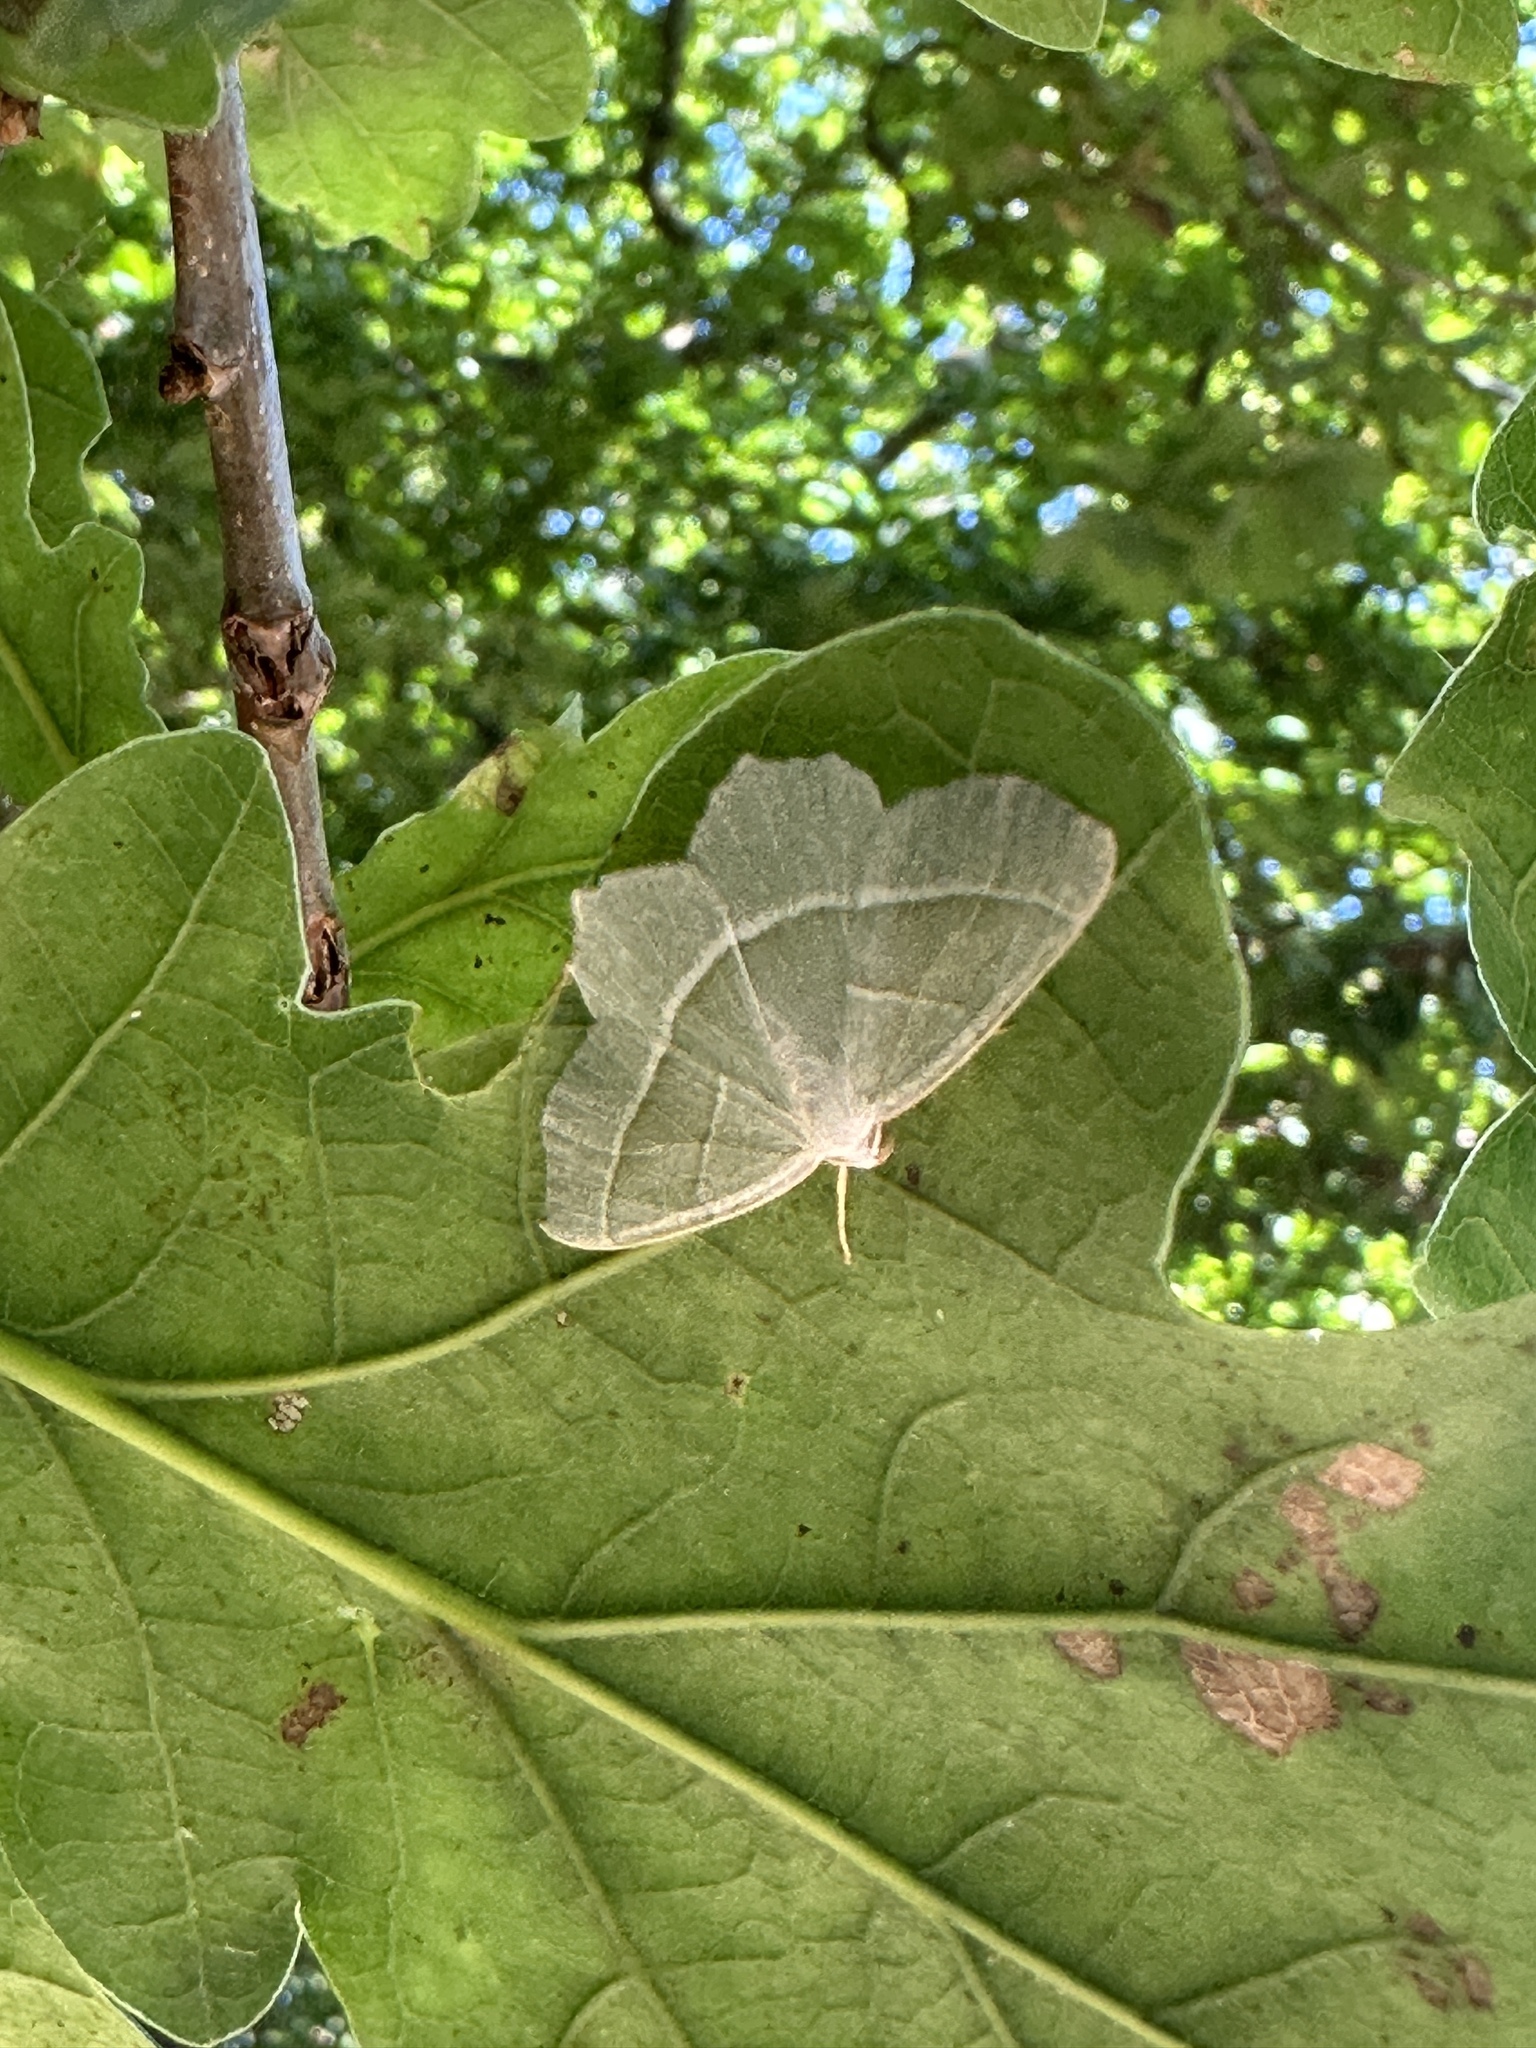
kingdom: Animalia
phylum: Arthropoda
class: Insecta
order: Lepidoptera
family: Geometridae
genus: Campaea
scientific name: Campaea margaritaria
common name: Light emerald
